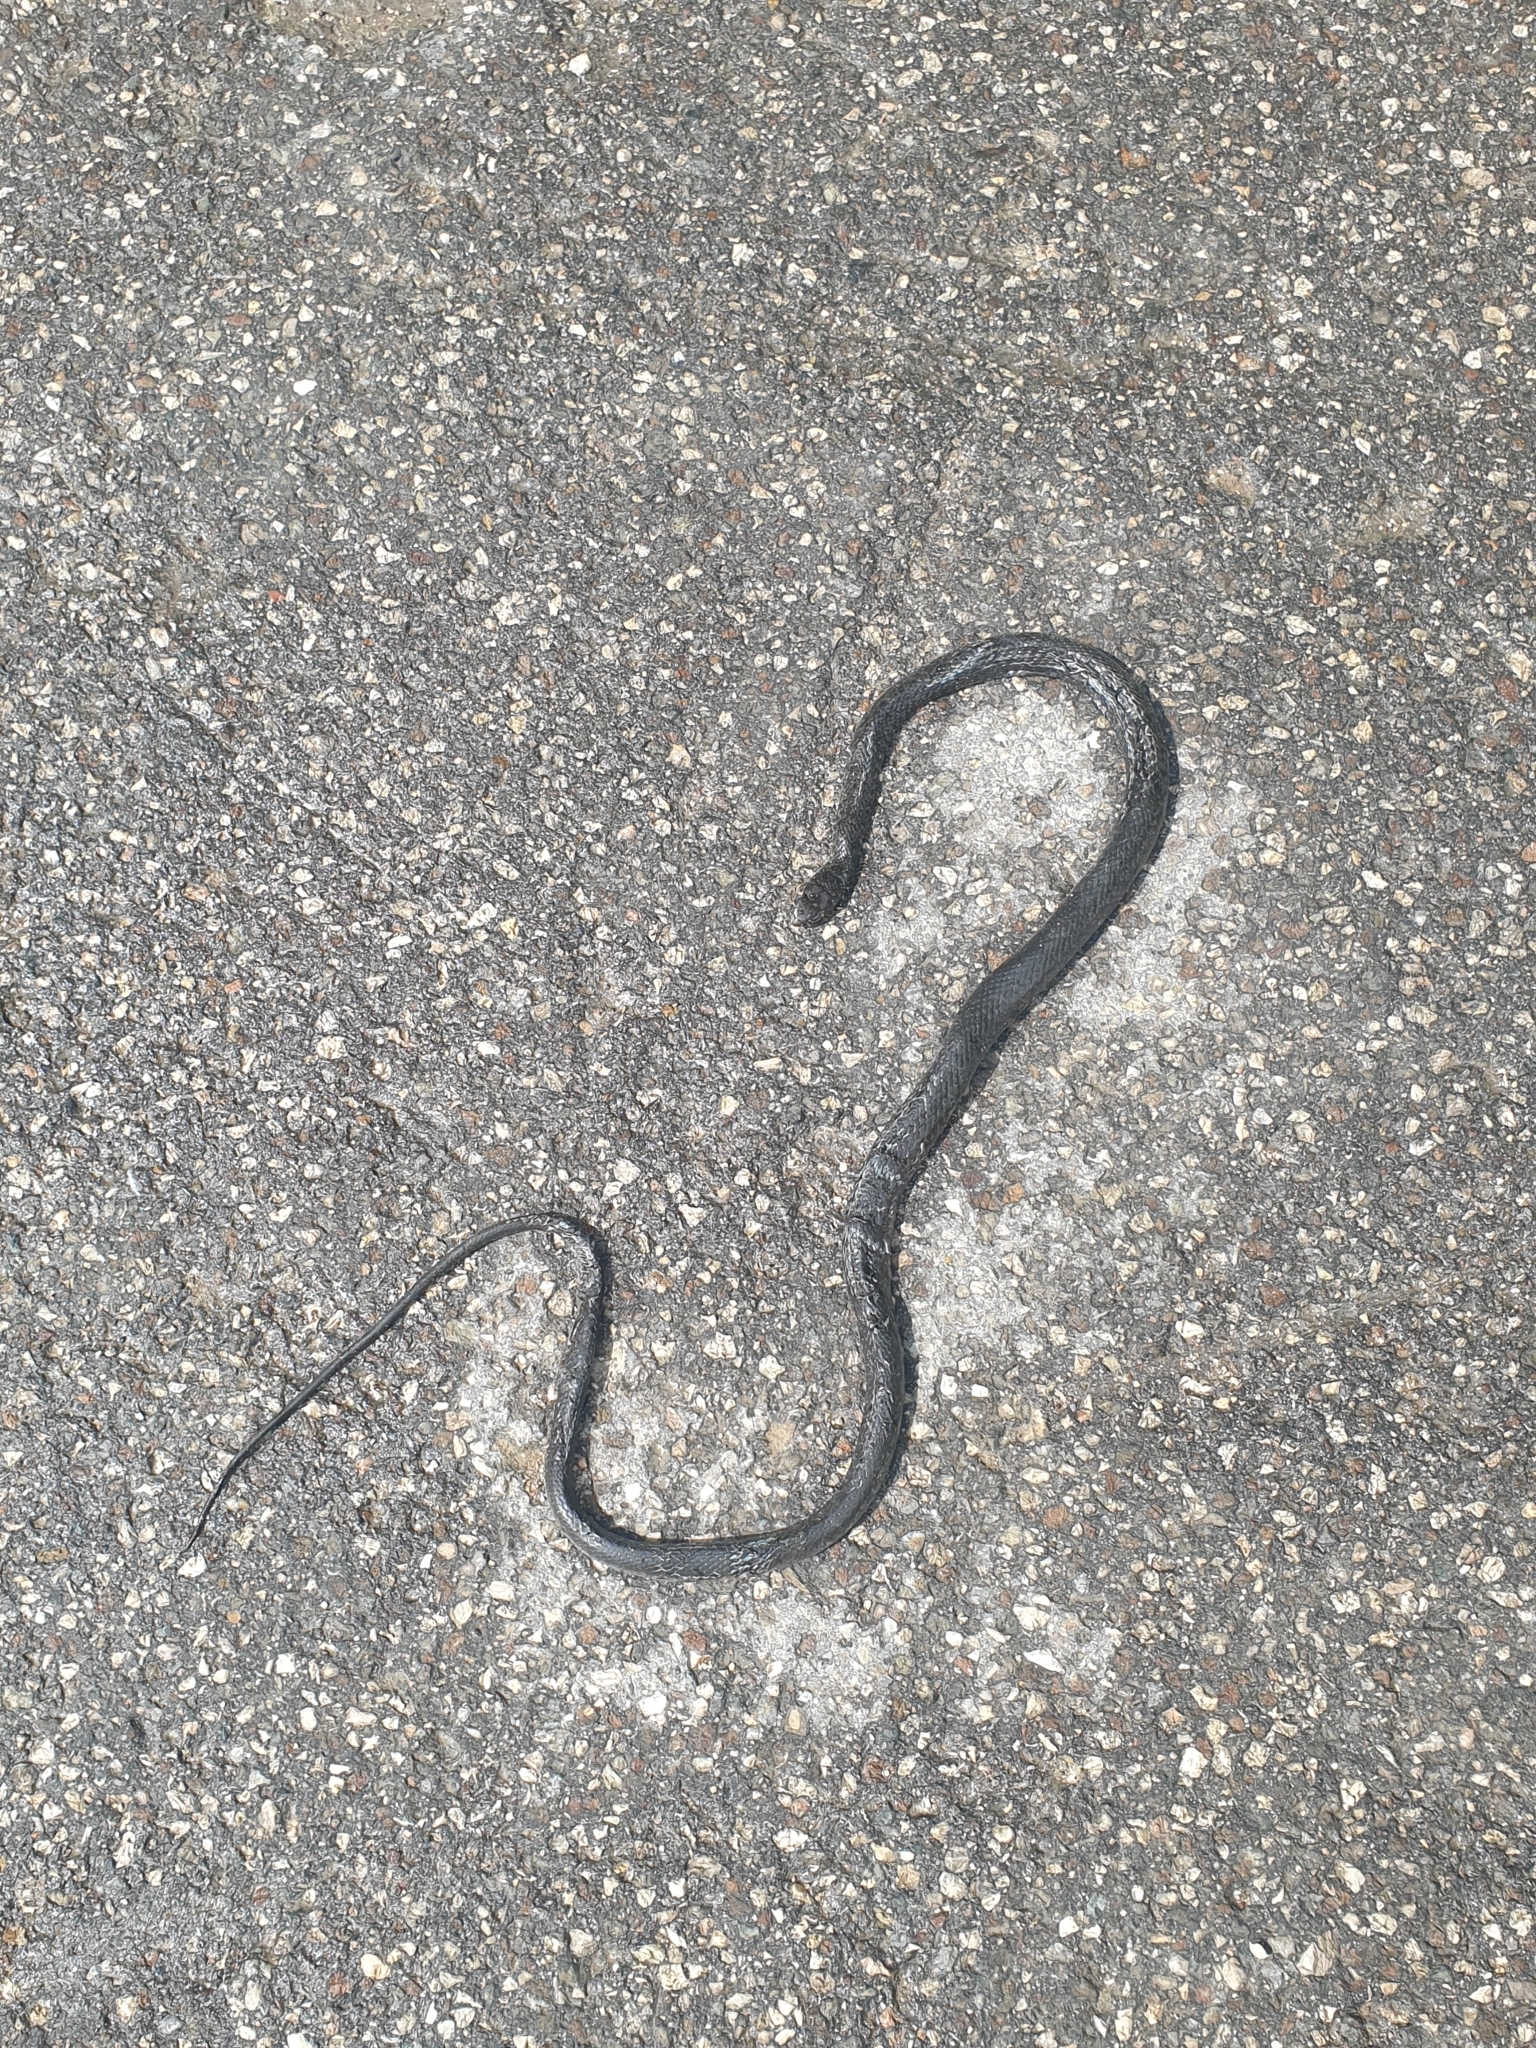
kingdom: Animalia
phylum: Chordata
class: Squamata
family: Colubridae
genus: Hierophis
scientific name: Hierophis viridiflavus
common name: Green whip snake
